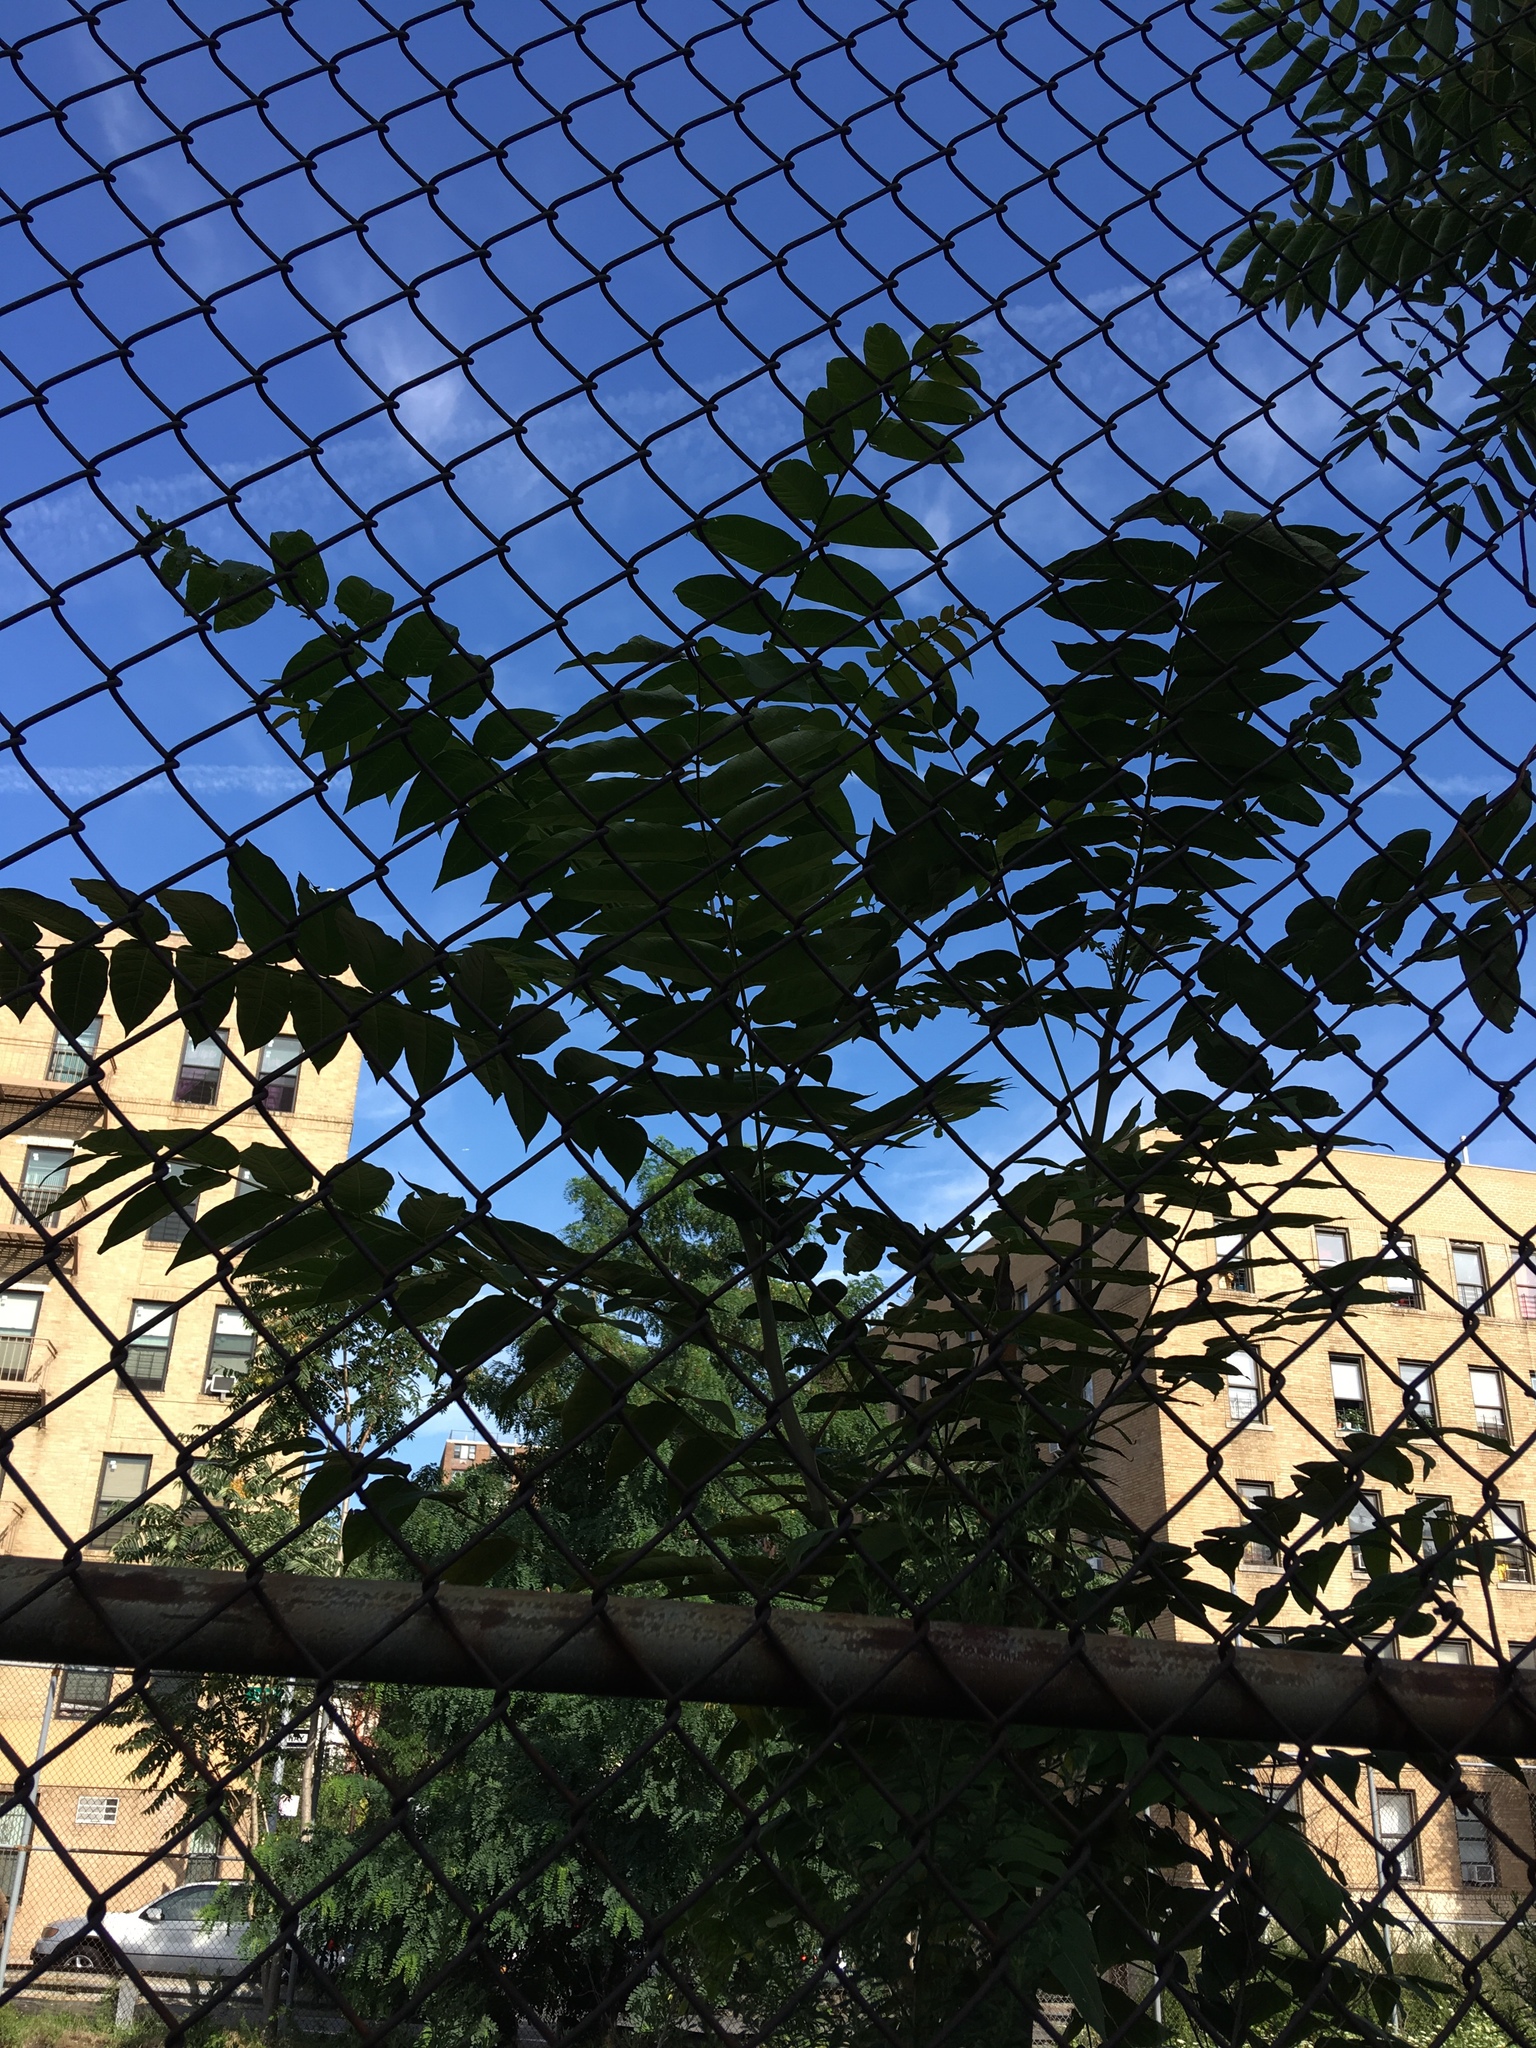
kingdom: Plantae
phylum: Tracheophyta
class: Magnoliopsida
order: Sapindales
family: Simaroubaceae
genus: Ailanthus
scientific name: Ailanthus altissima
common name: Tree-of-heaven
